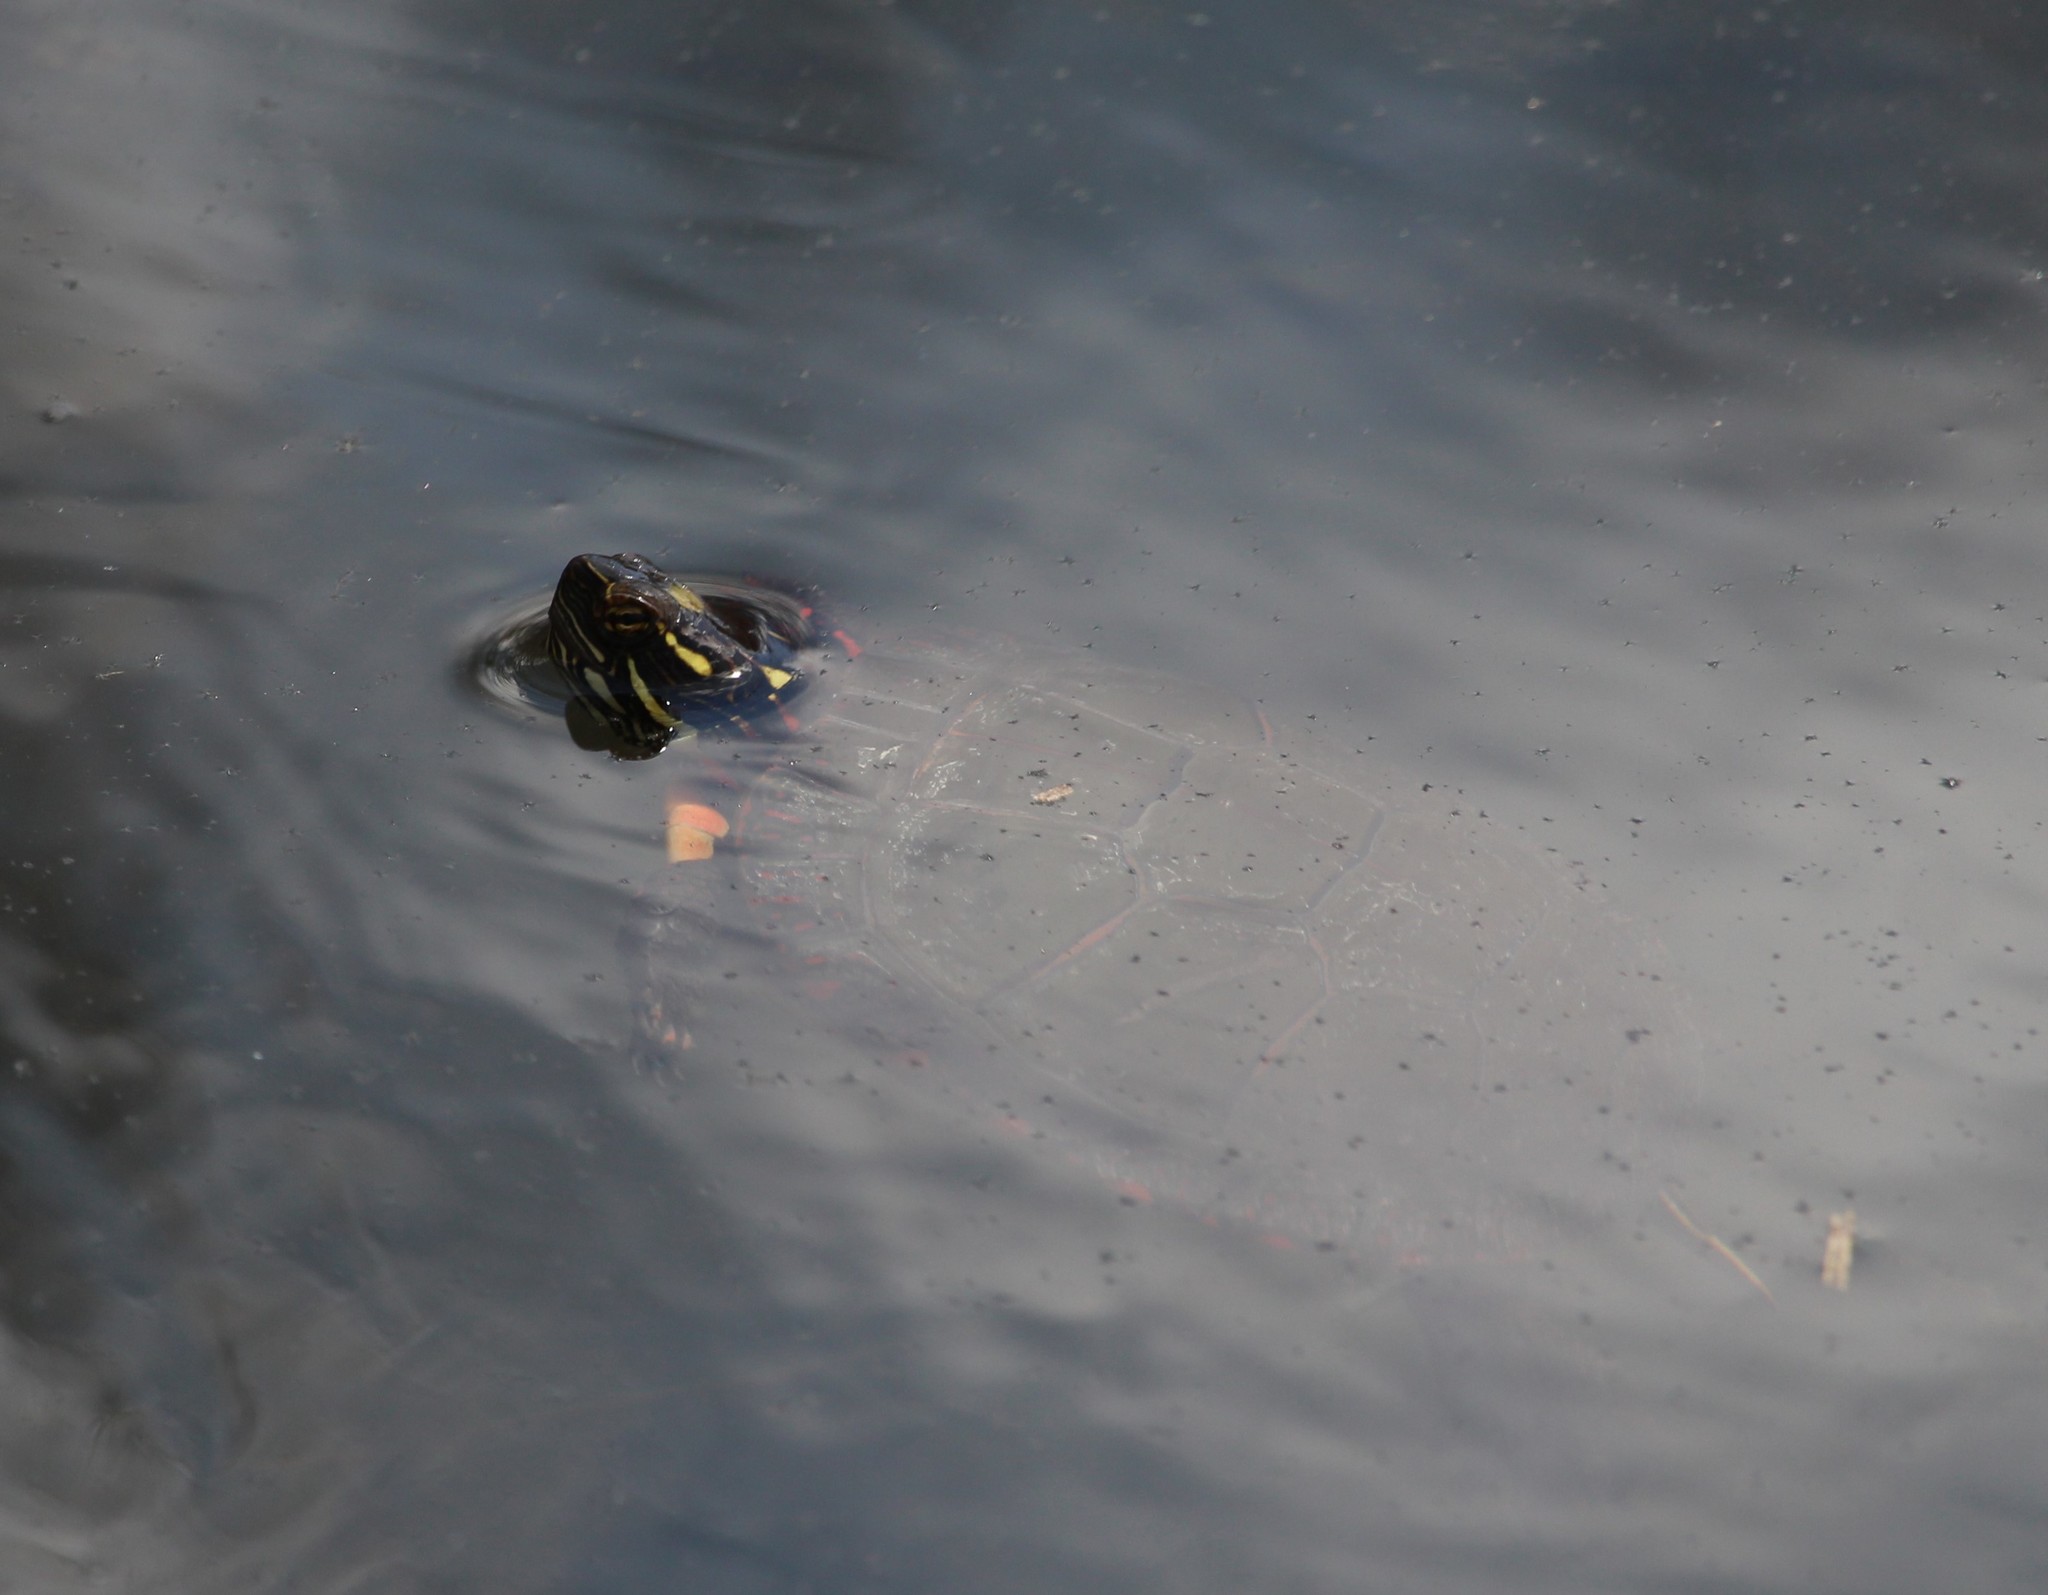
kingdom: Animalia
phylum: Chordata
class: Testudines
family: Emydidae
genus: Chrysemys
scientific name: Chrysemys picta
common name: Painted turtle
